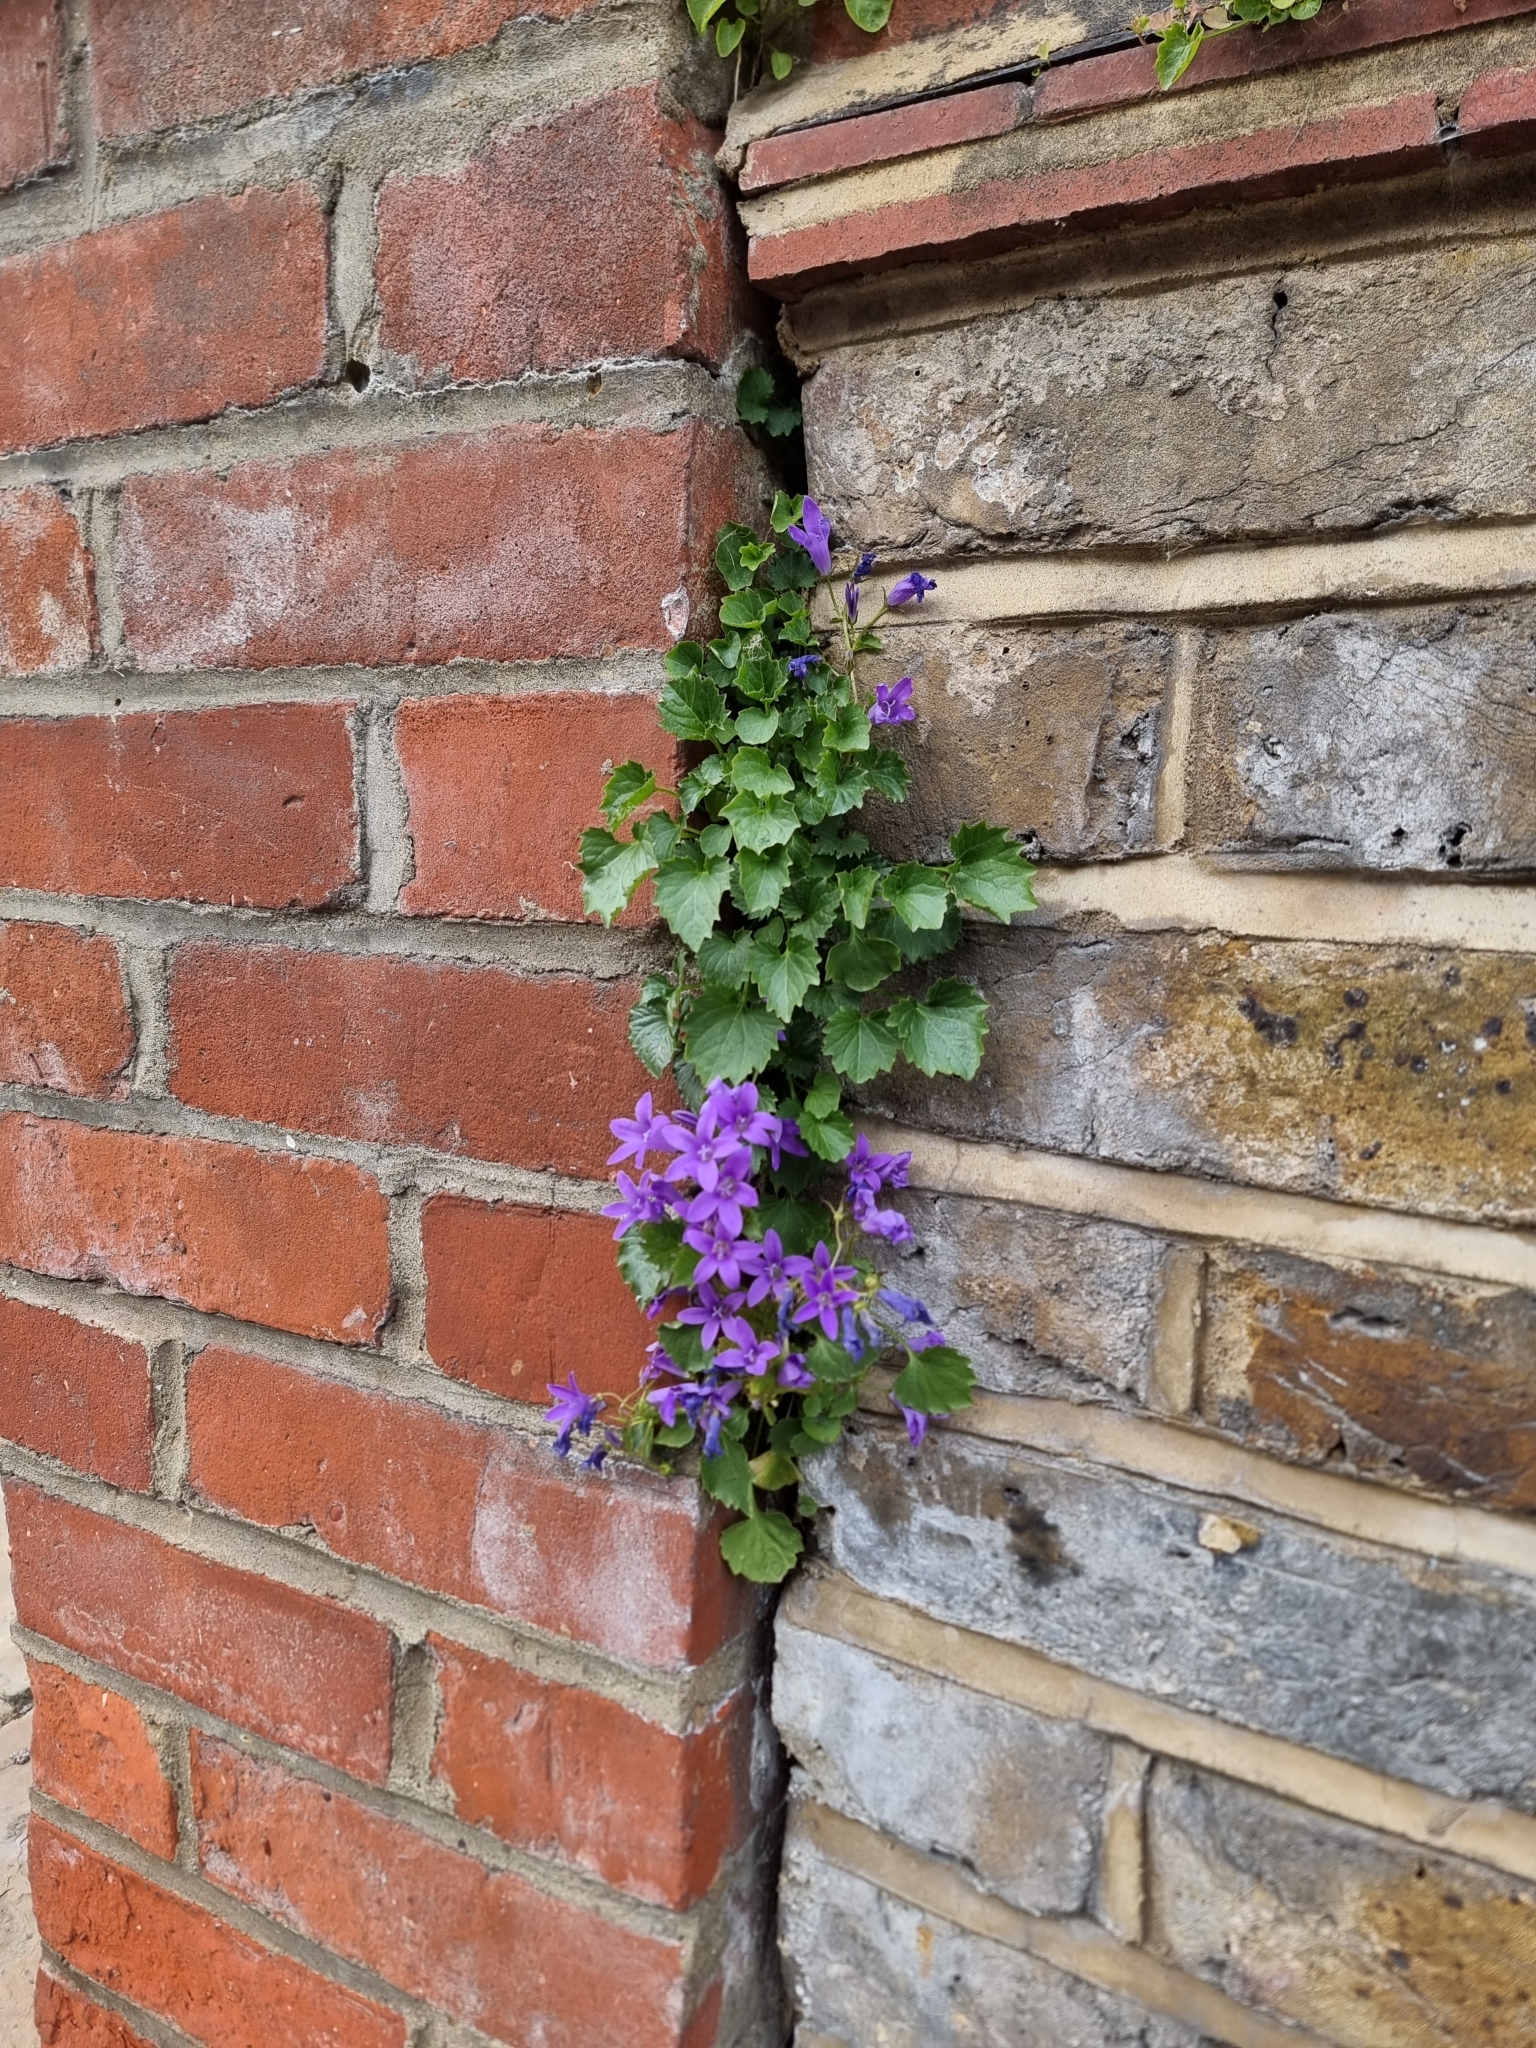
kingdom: Plantae
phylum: Tracheophyta
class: Magnoliopsida
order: Asterales
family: Campanulaceae
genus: Campanula
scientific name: Campanula portenschlagiana
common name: Adria bellflower
